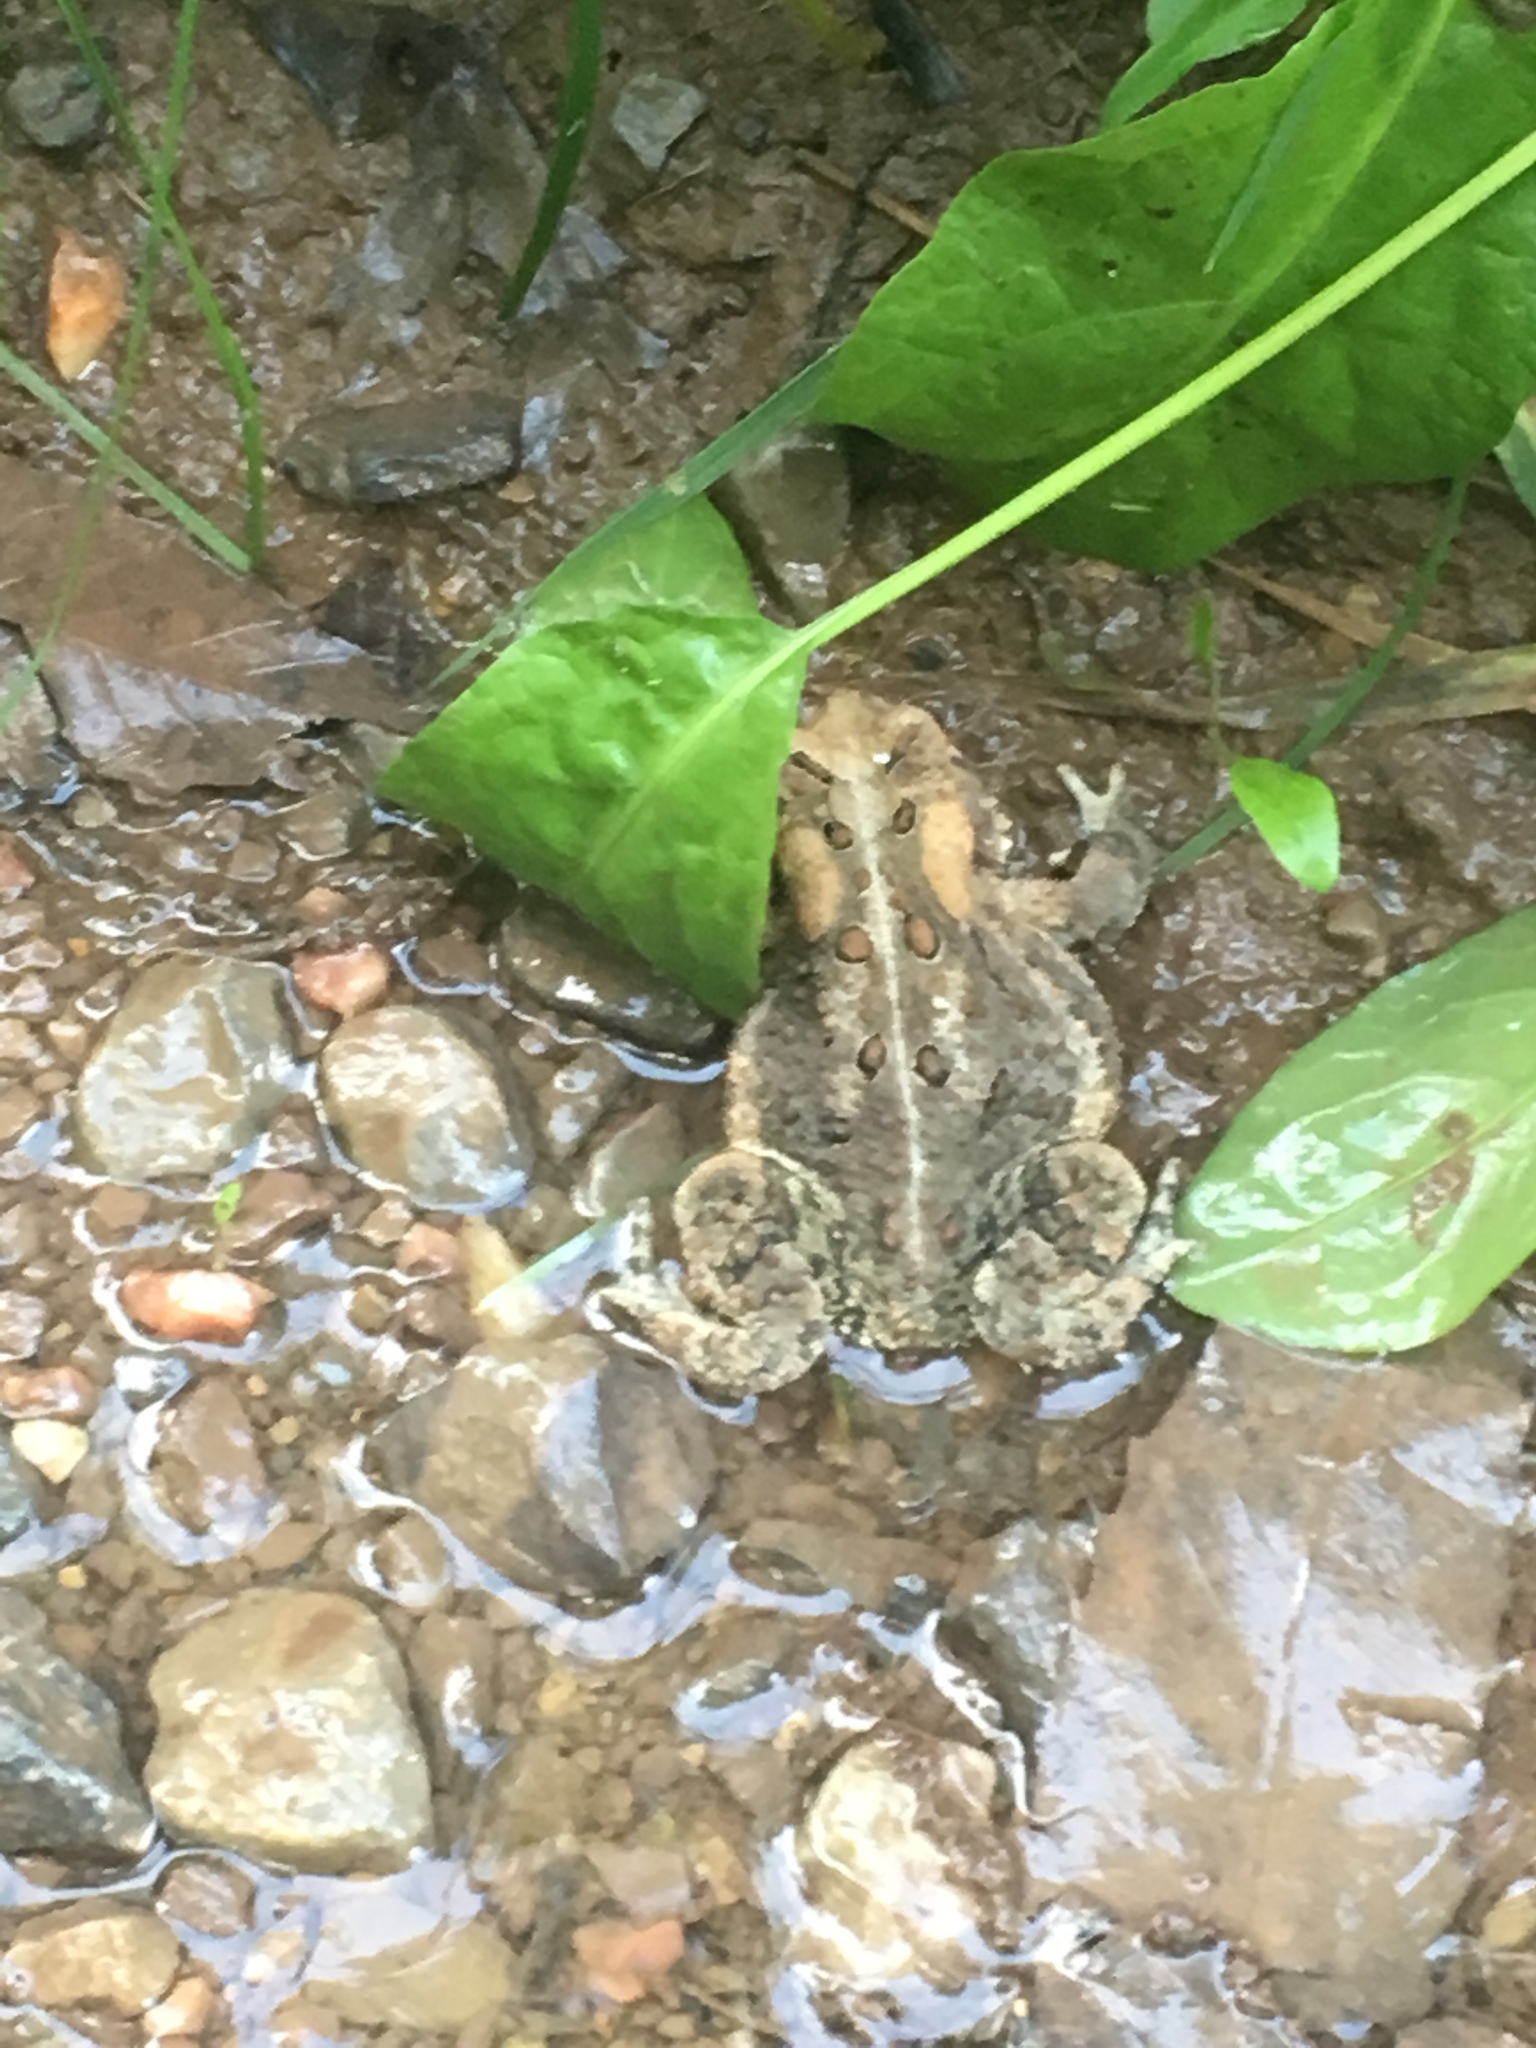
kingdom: Animalia
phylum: Chordata
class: Amphibia
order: Anura
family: Bufonidae
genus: Anaxyrus
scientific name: Anaxyrus americanus
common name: American toad
